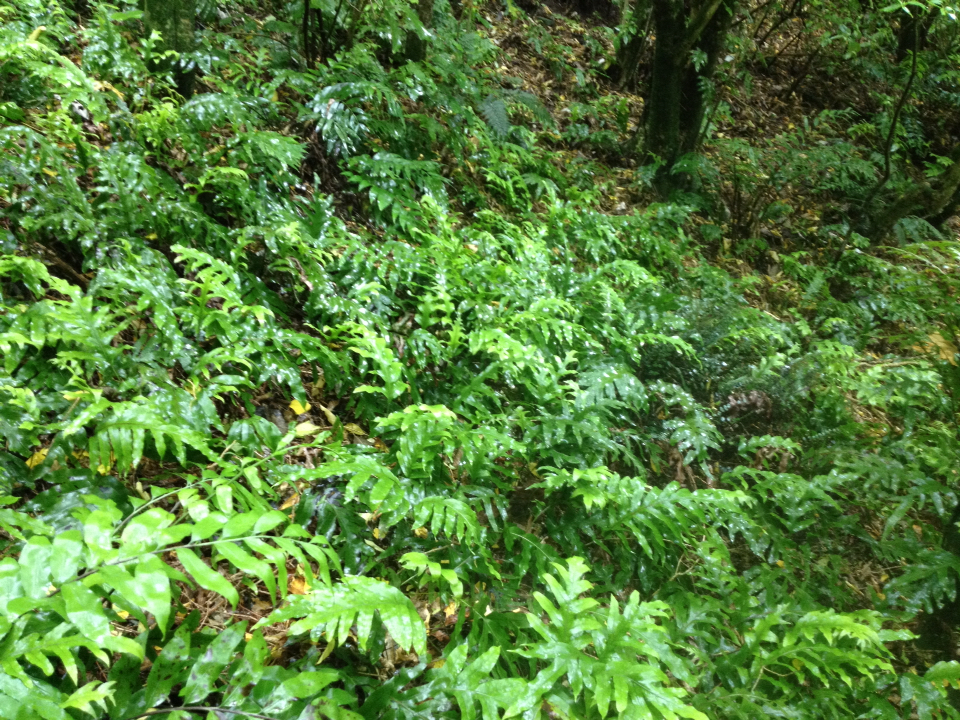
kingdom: Plantae
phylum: Tracheophyta
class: Polypodiopsida
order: Polypodiales
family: Polypodiaceae
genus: Lecanopteris
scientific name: Lecanopteris pustulata
